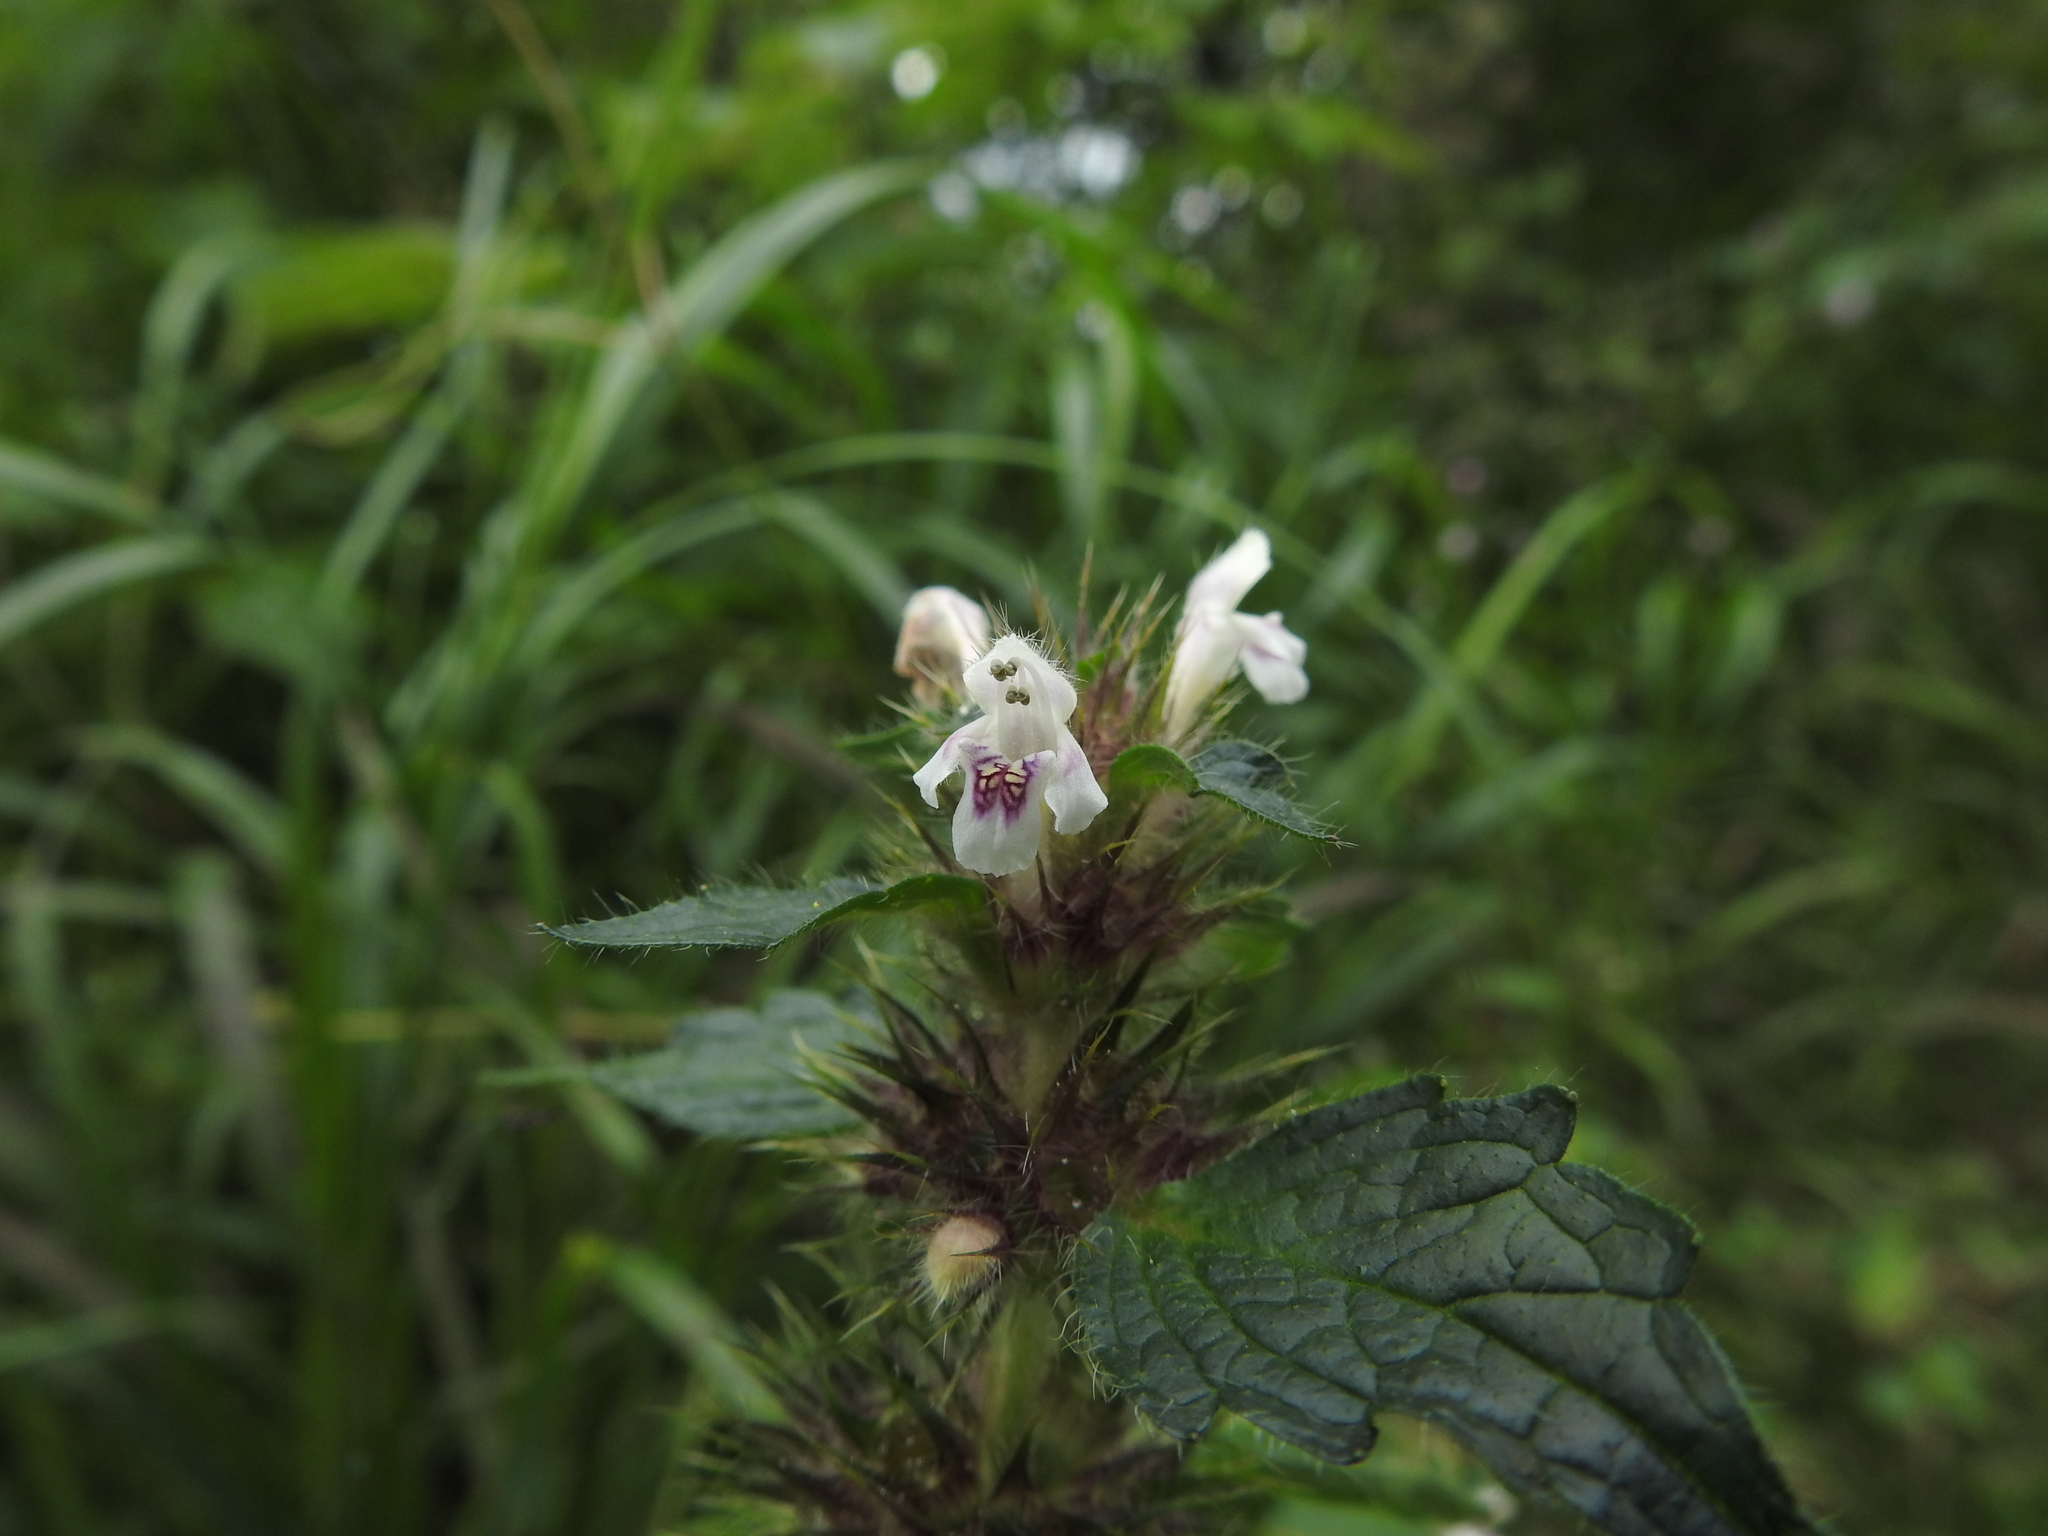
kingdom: Plantae
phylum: Tracheophyta
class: Magnoliopsida
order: Lamiales
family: Lamiaceae
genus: Galeopsis
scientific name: Galeopsis tetrahit
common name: Common hemp-nettle
